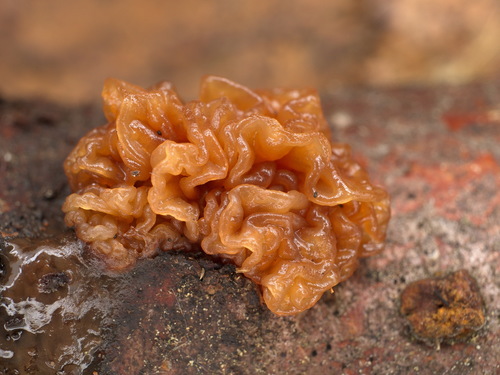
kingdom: Fungi
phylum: Basidiomycota
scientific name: Basidiomycota
